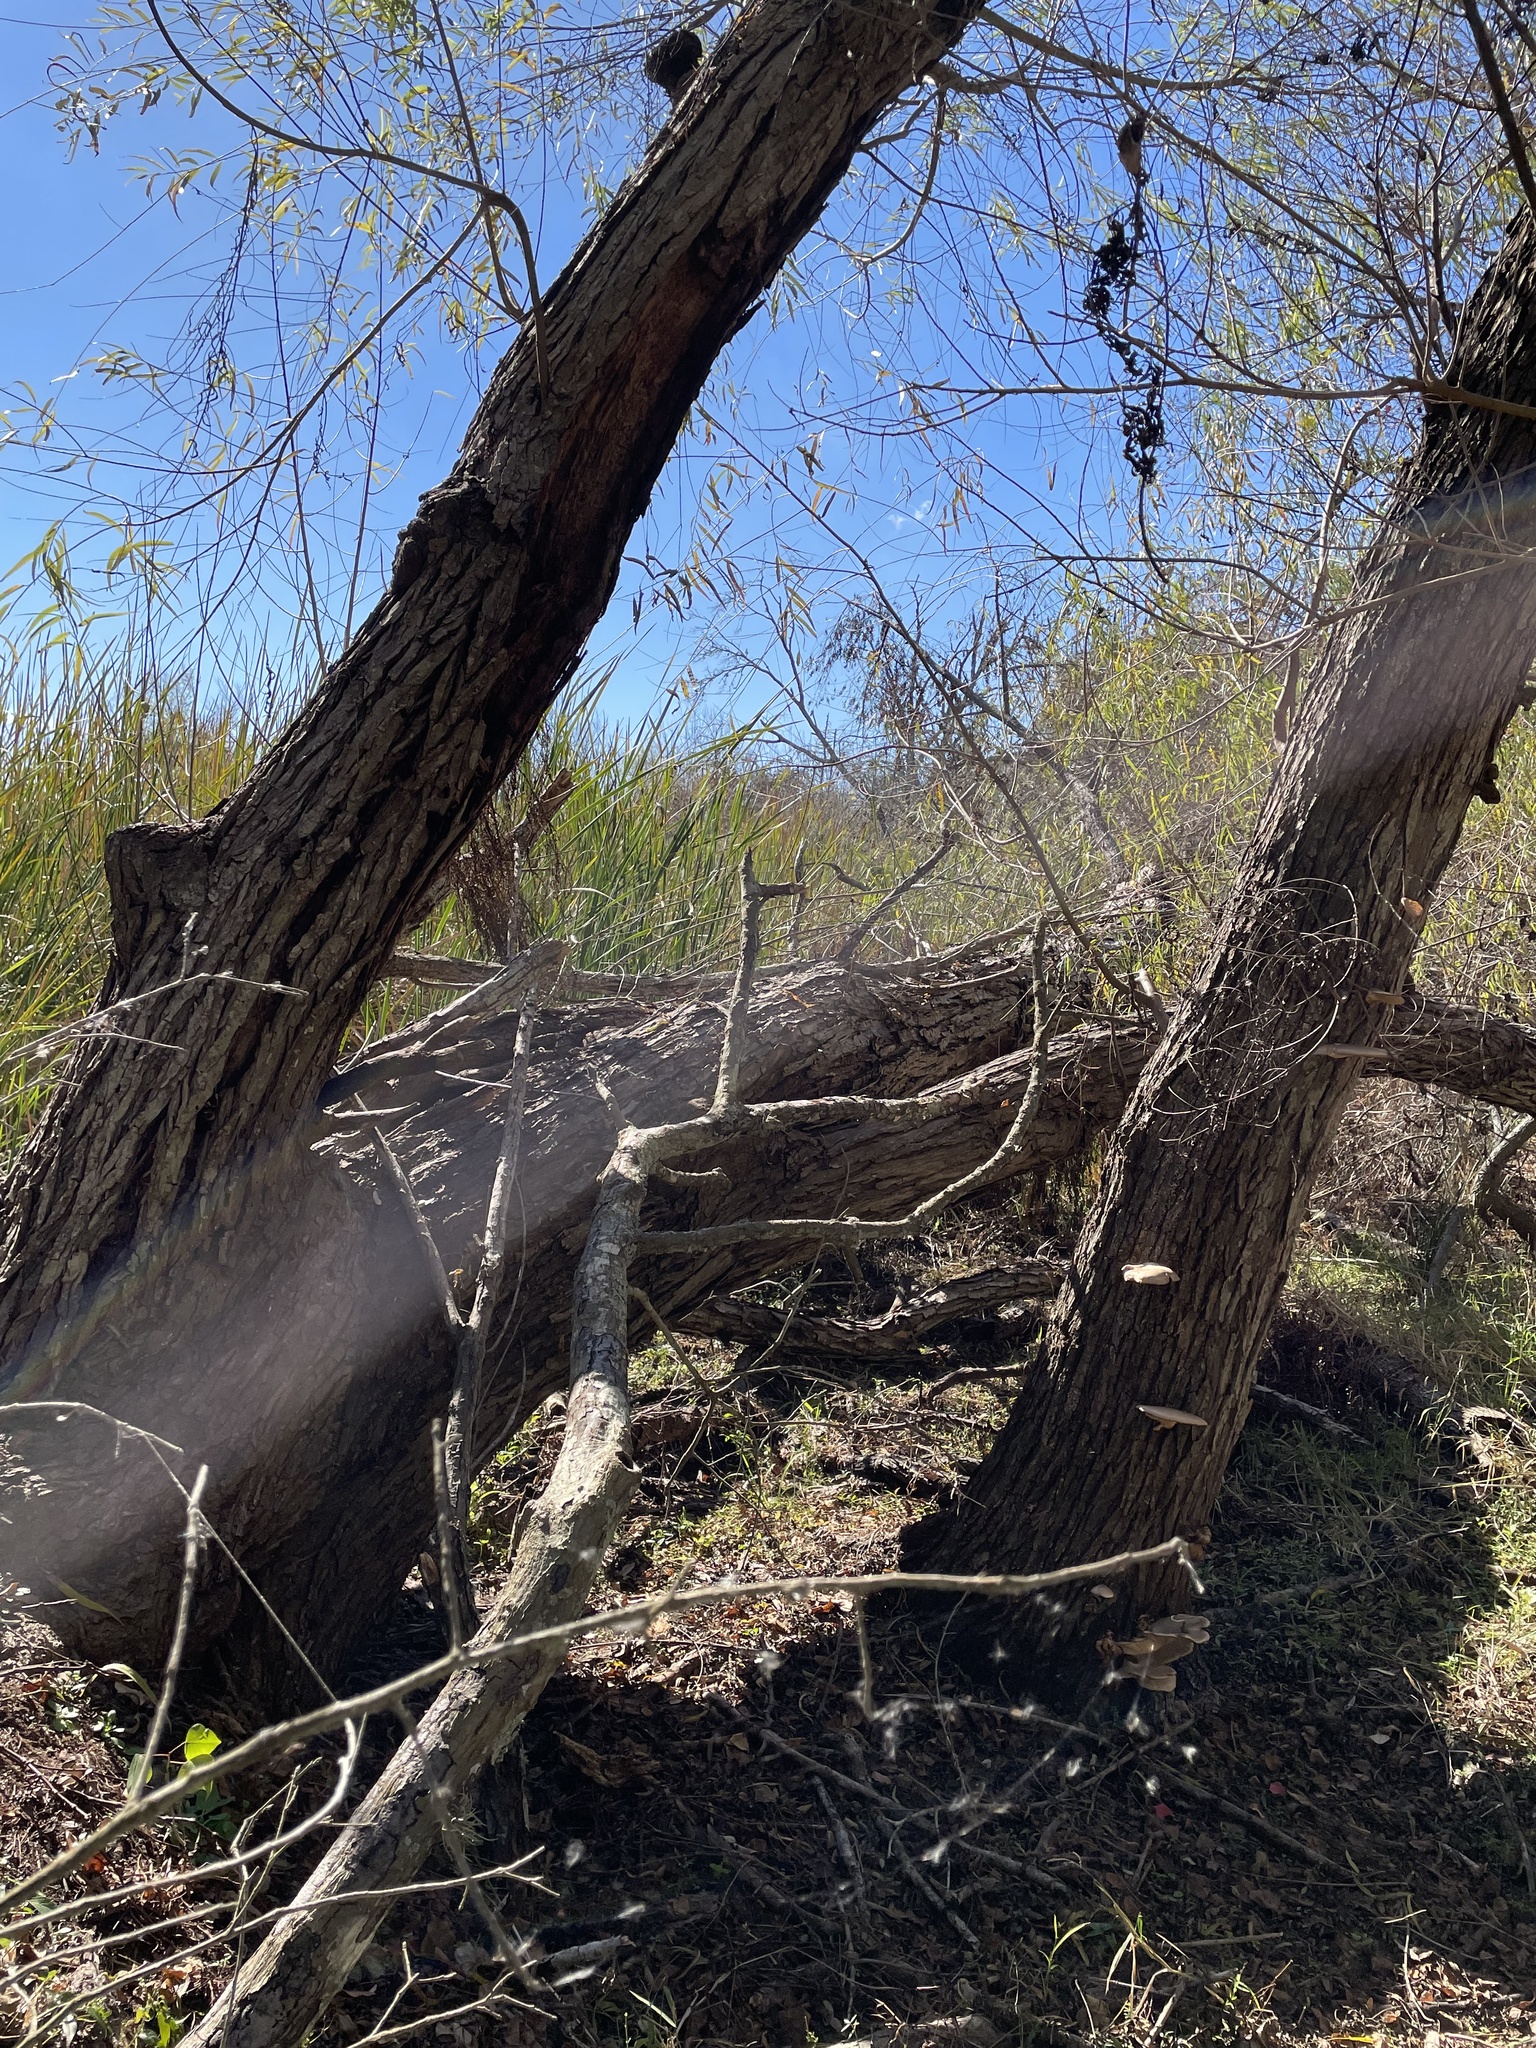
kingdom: Plantae
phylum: Tracheophyta
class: Magnoliopsida
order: Malpighiales
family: Salicaceae
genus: Salix
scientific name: Salix nigra
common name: Black willow
